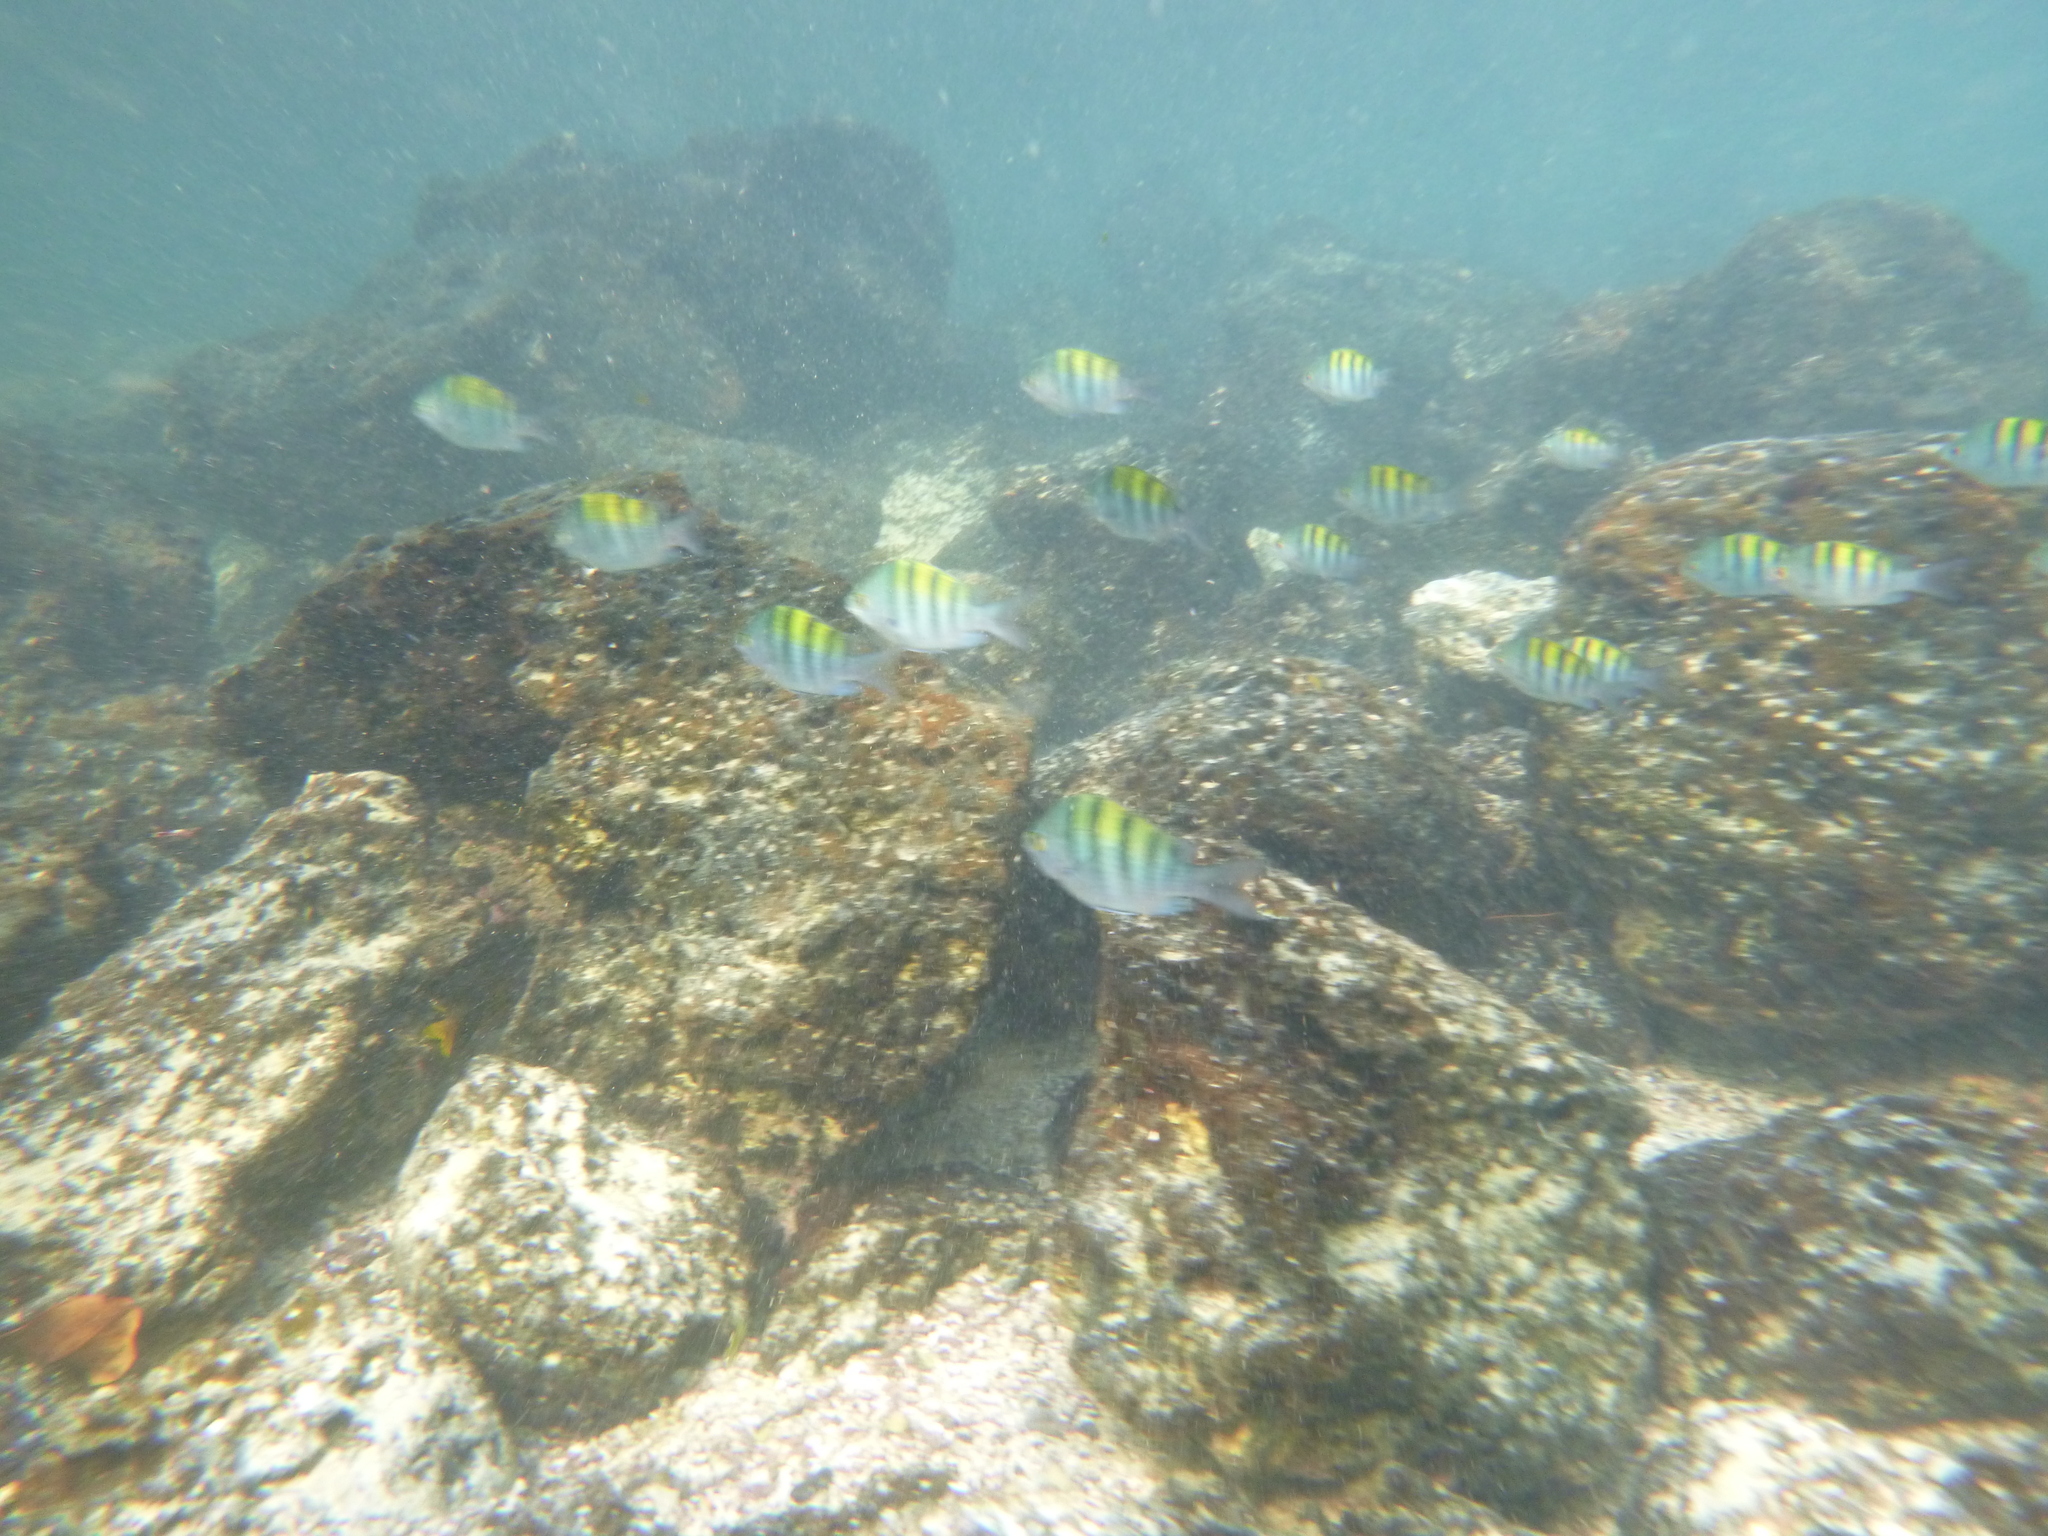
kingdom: Animalia
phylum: Chordata
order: Perciformes
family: Pomacentridae
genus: Abudefduf
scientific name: Abudefduf troschelii
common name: Panamic sergeant major
